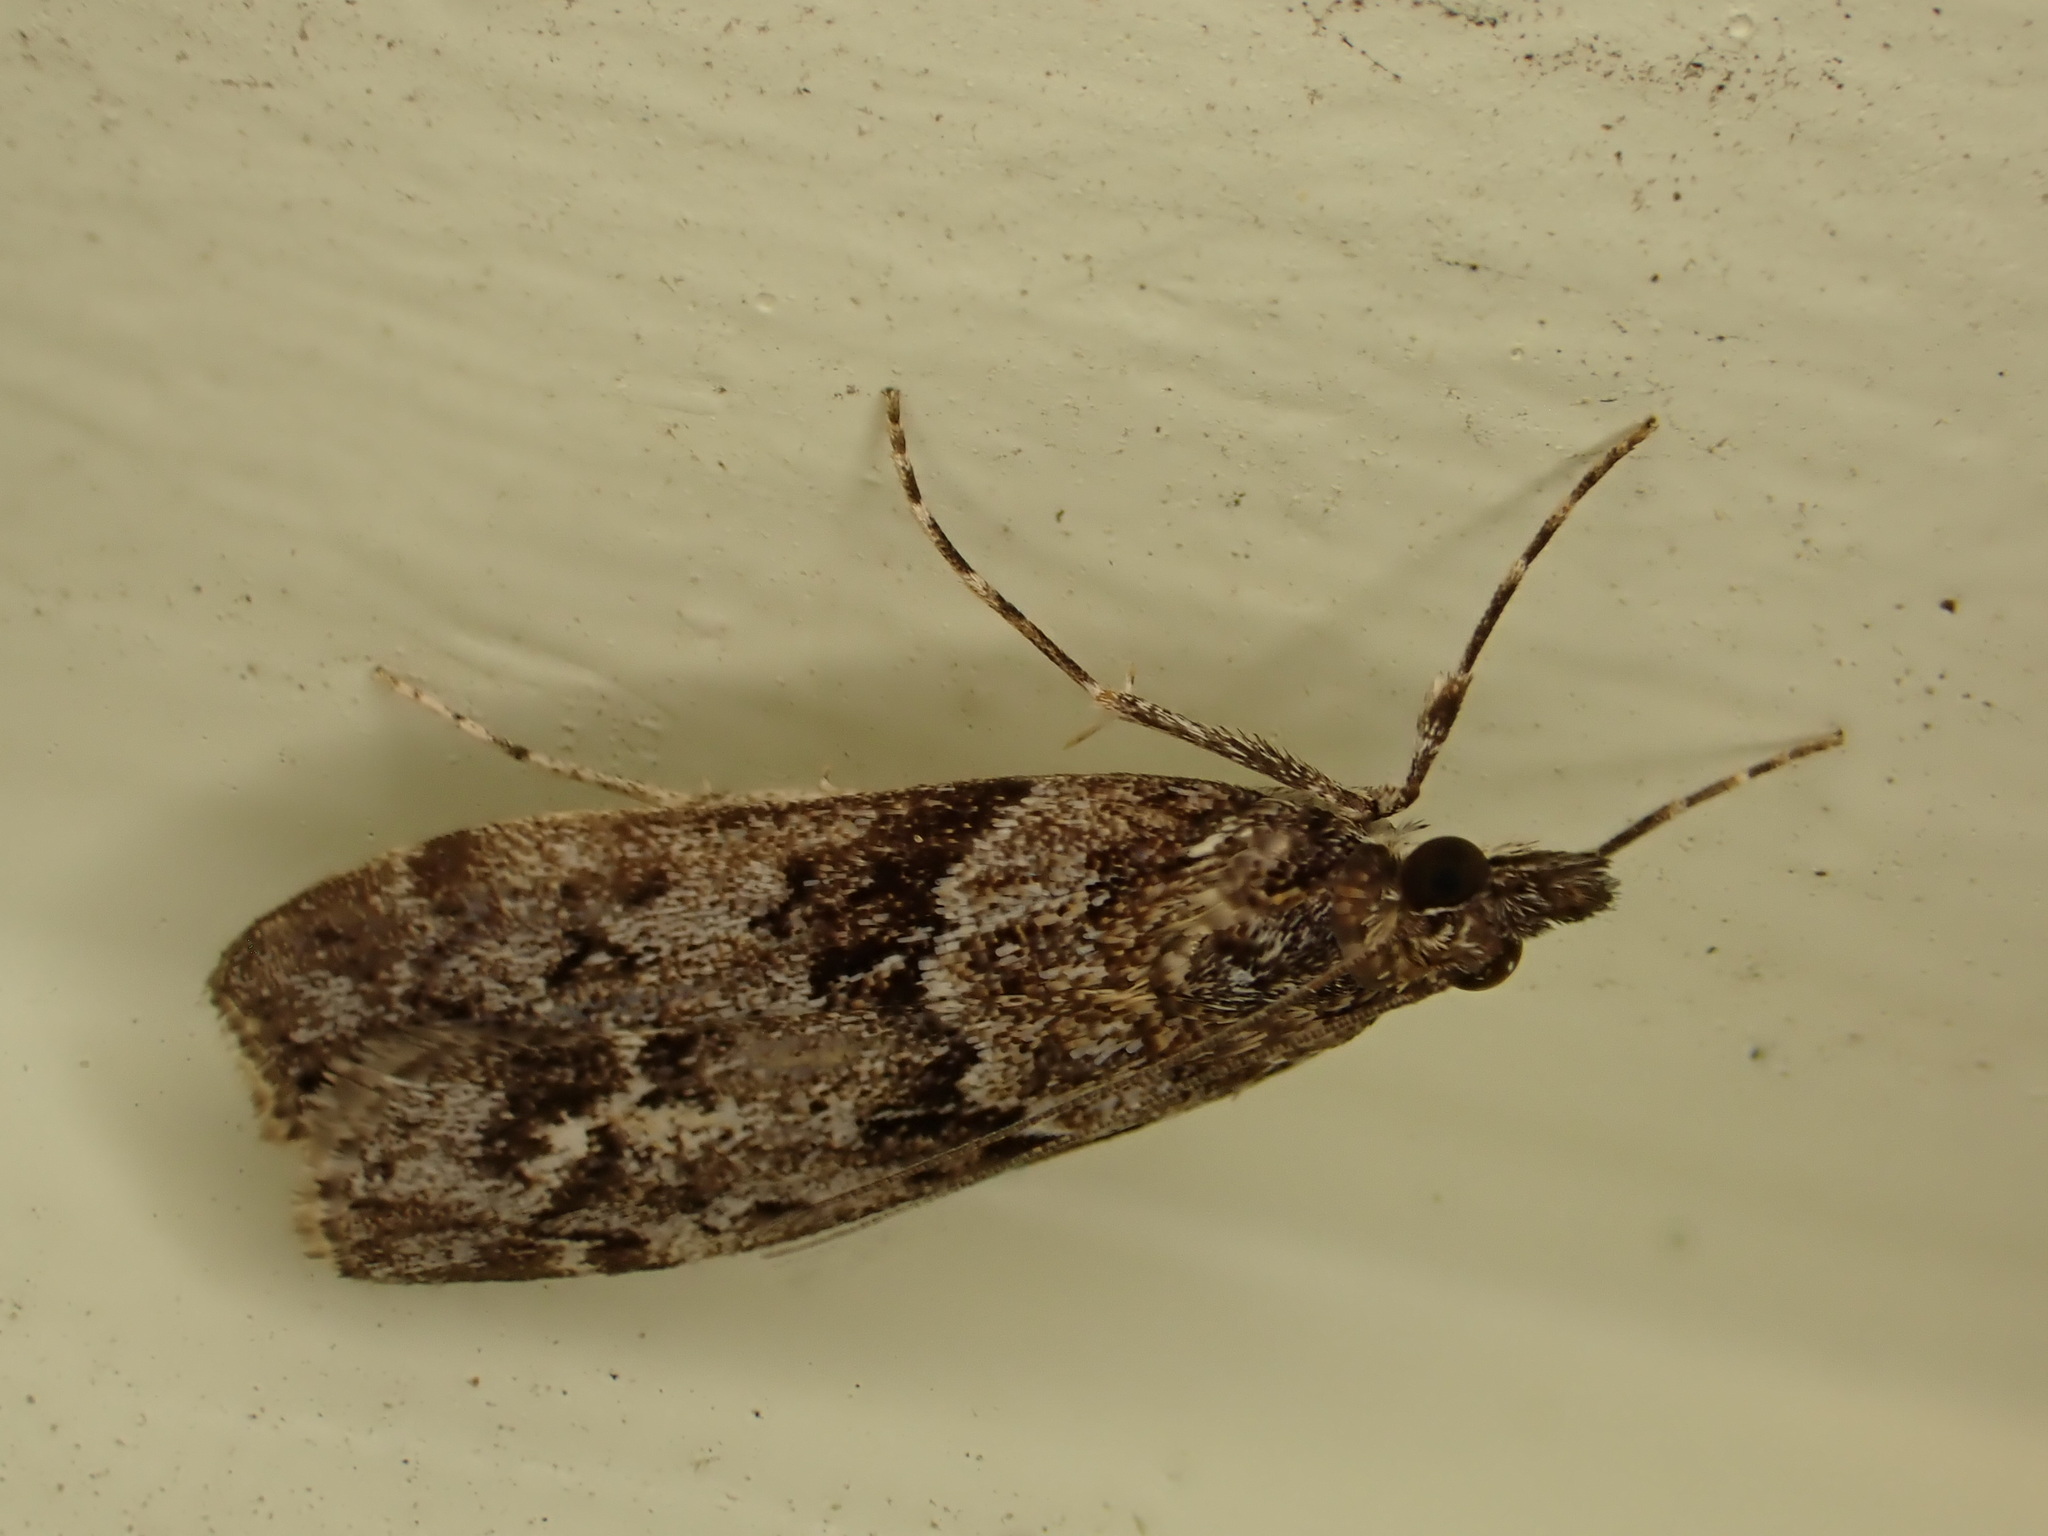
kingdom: Animalia
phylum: Arthropoda
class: Insecta
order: Lepidoptera
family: Crambidae
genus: Eudonia
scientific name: Eudonia submarginalis
